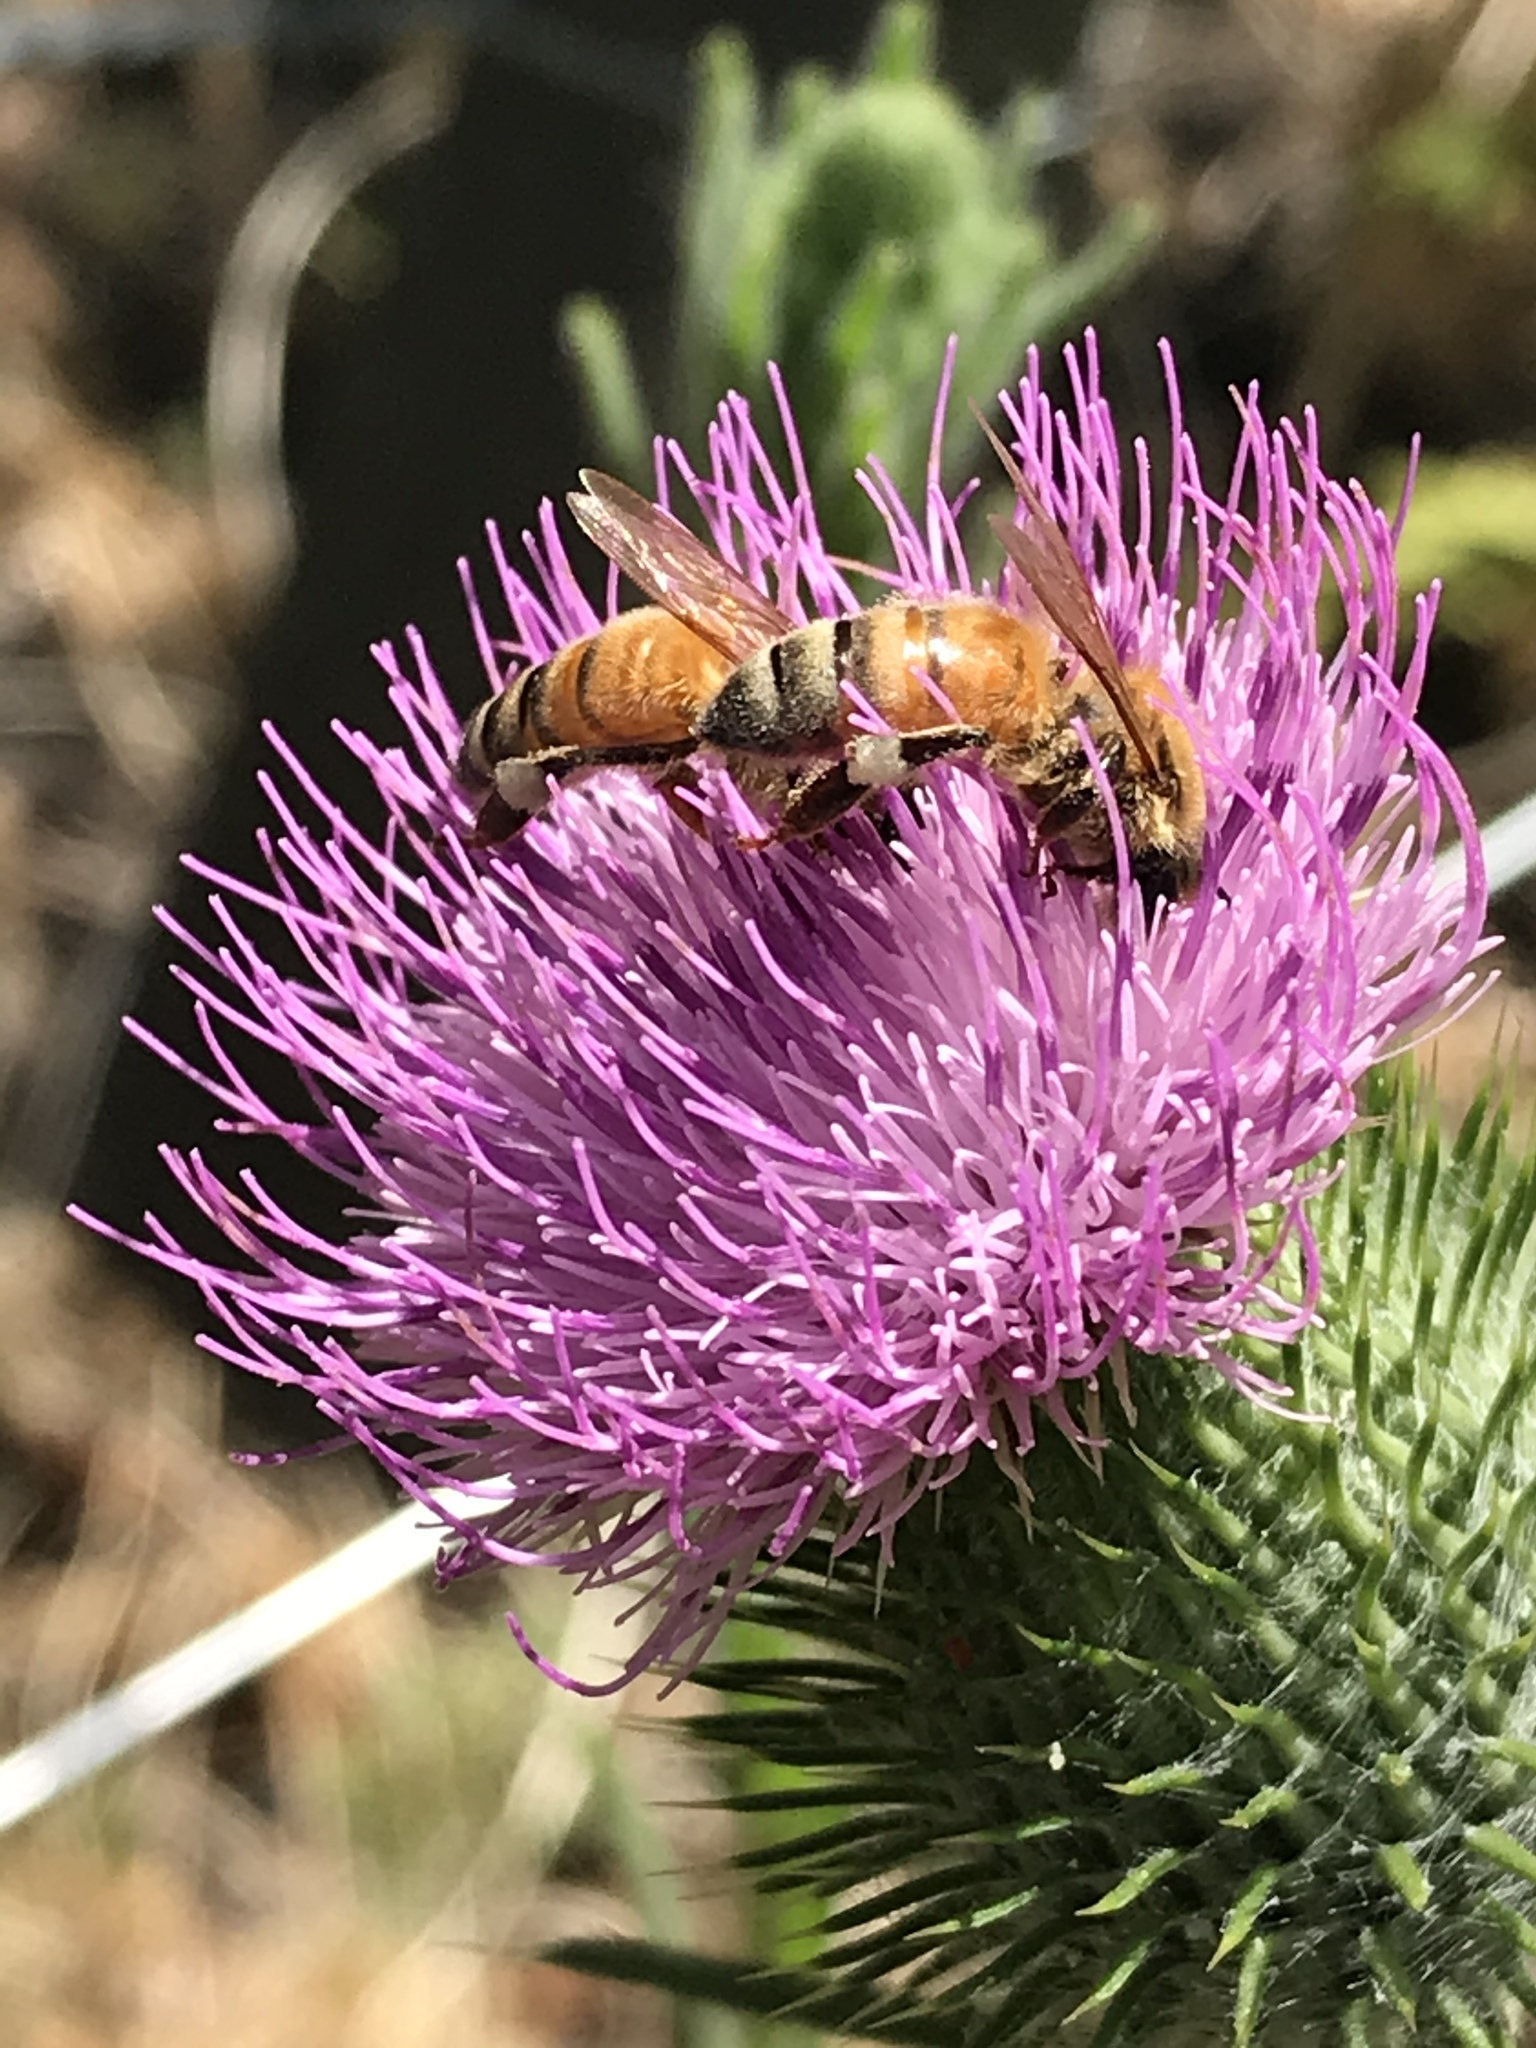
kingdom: Animalia
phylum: Arthropoda
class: Insecta
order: Hymenoptera
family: Apidae
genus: Apis
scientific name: Apis mellifera
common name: Honey bee
